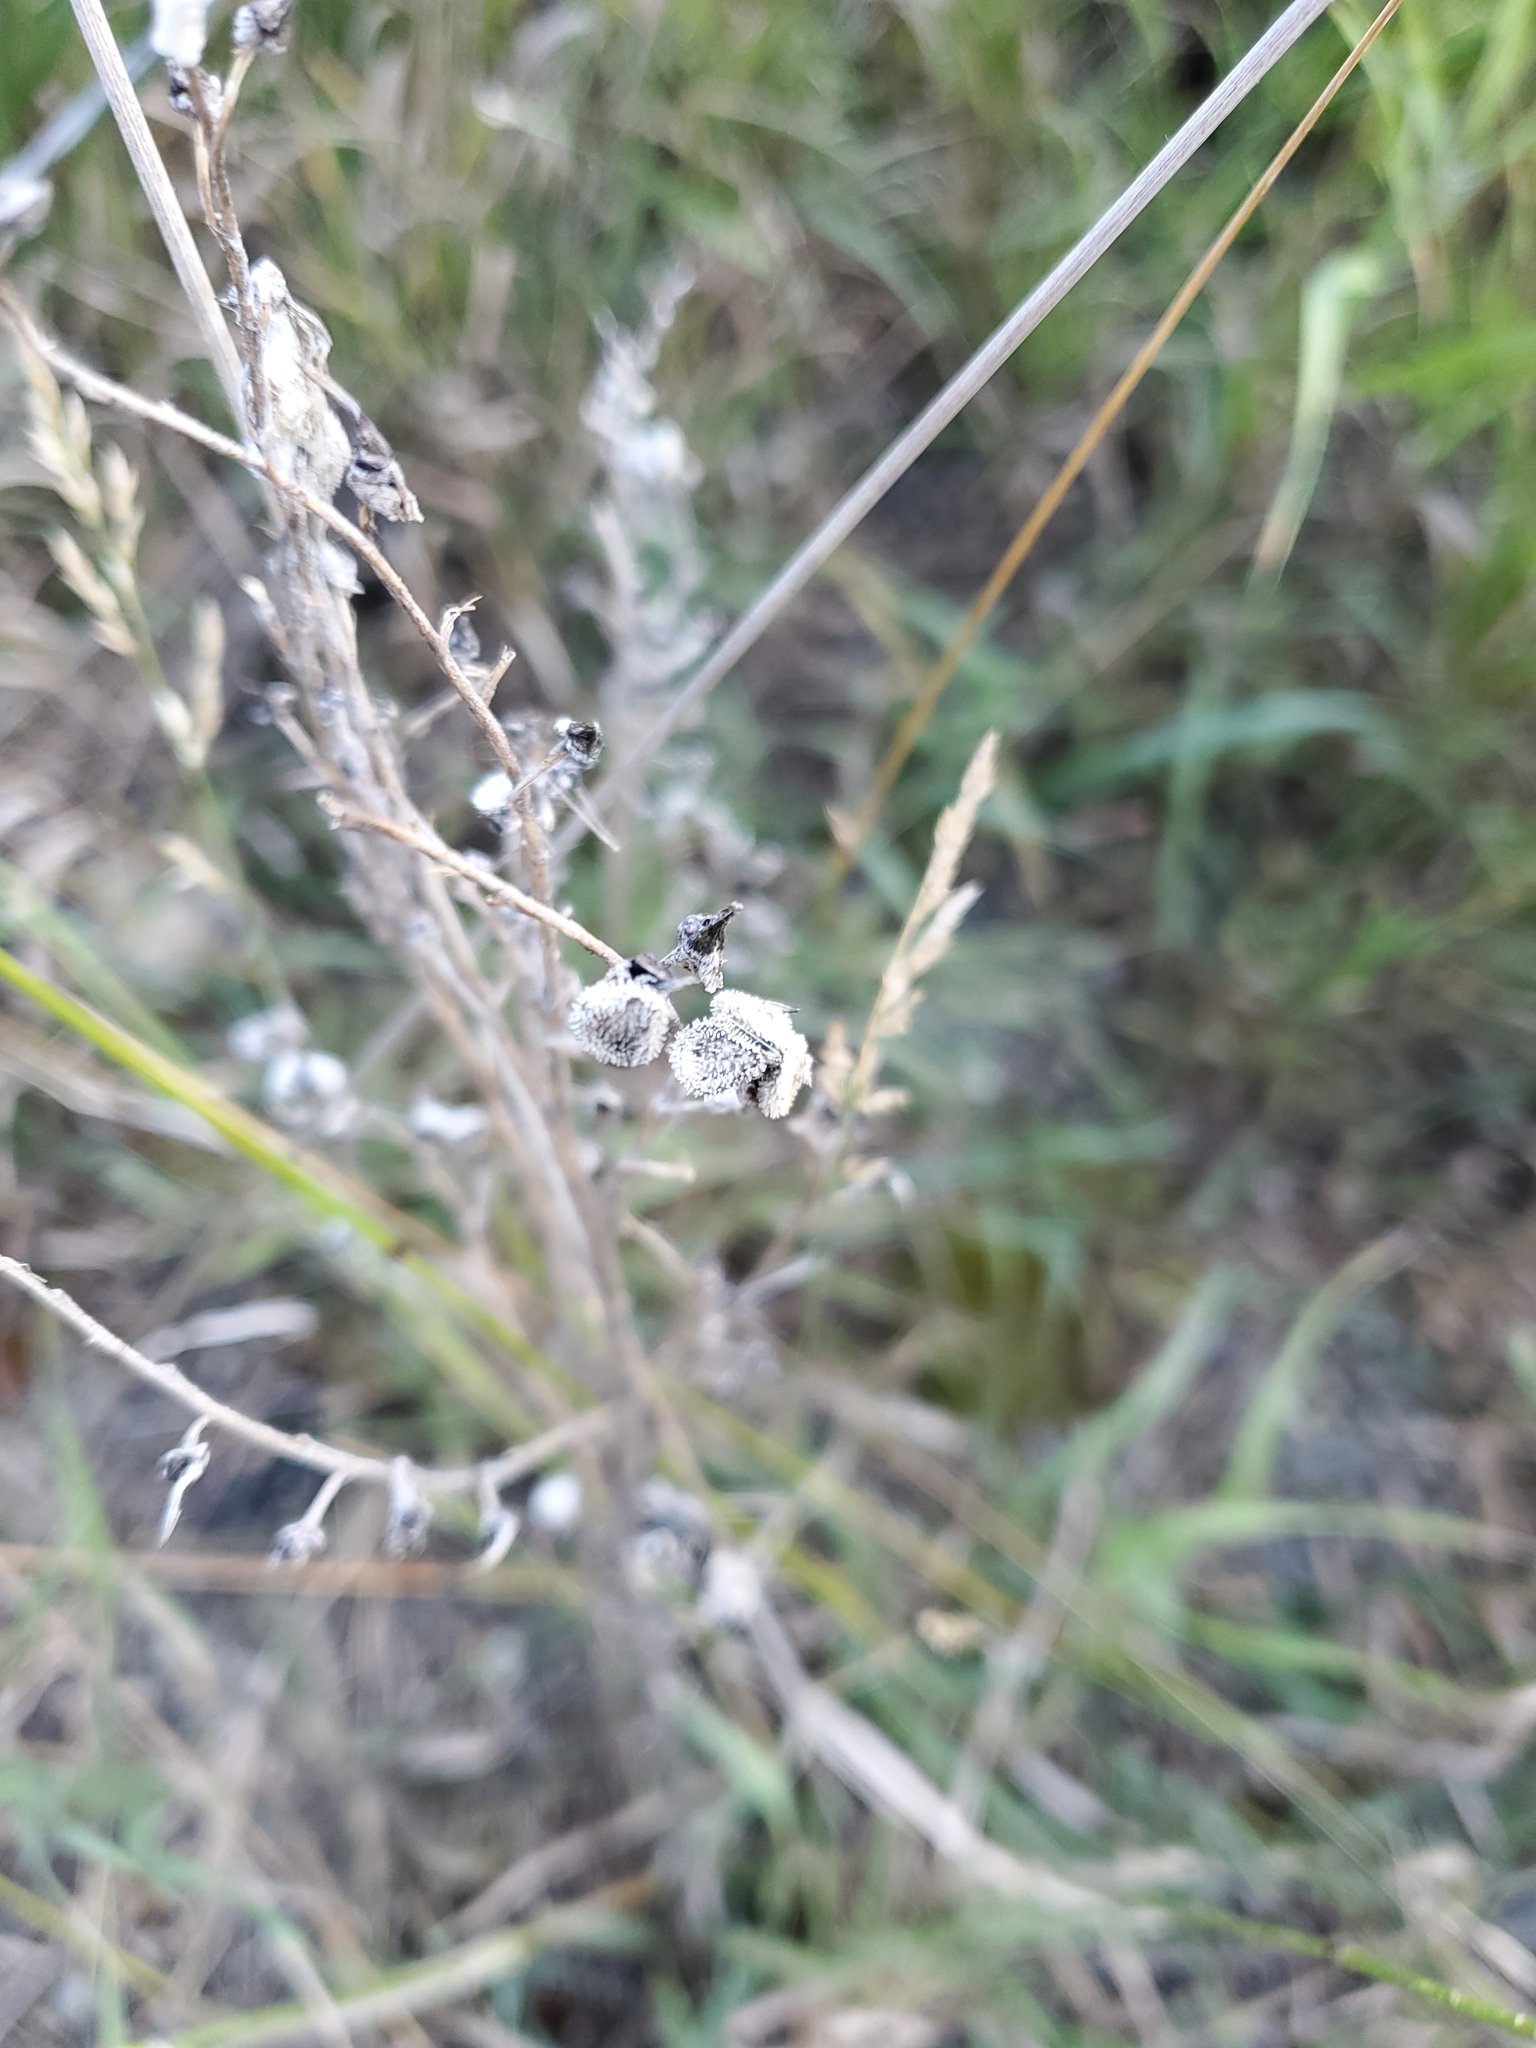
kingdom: Plantae
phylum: Tracheophyta
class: Magnoliopsida
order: Boraginales
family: Boraginaceae
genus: Cynoglossum
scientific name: Cynoglossum officinale
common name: Hound's-tongue
